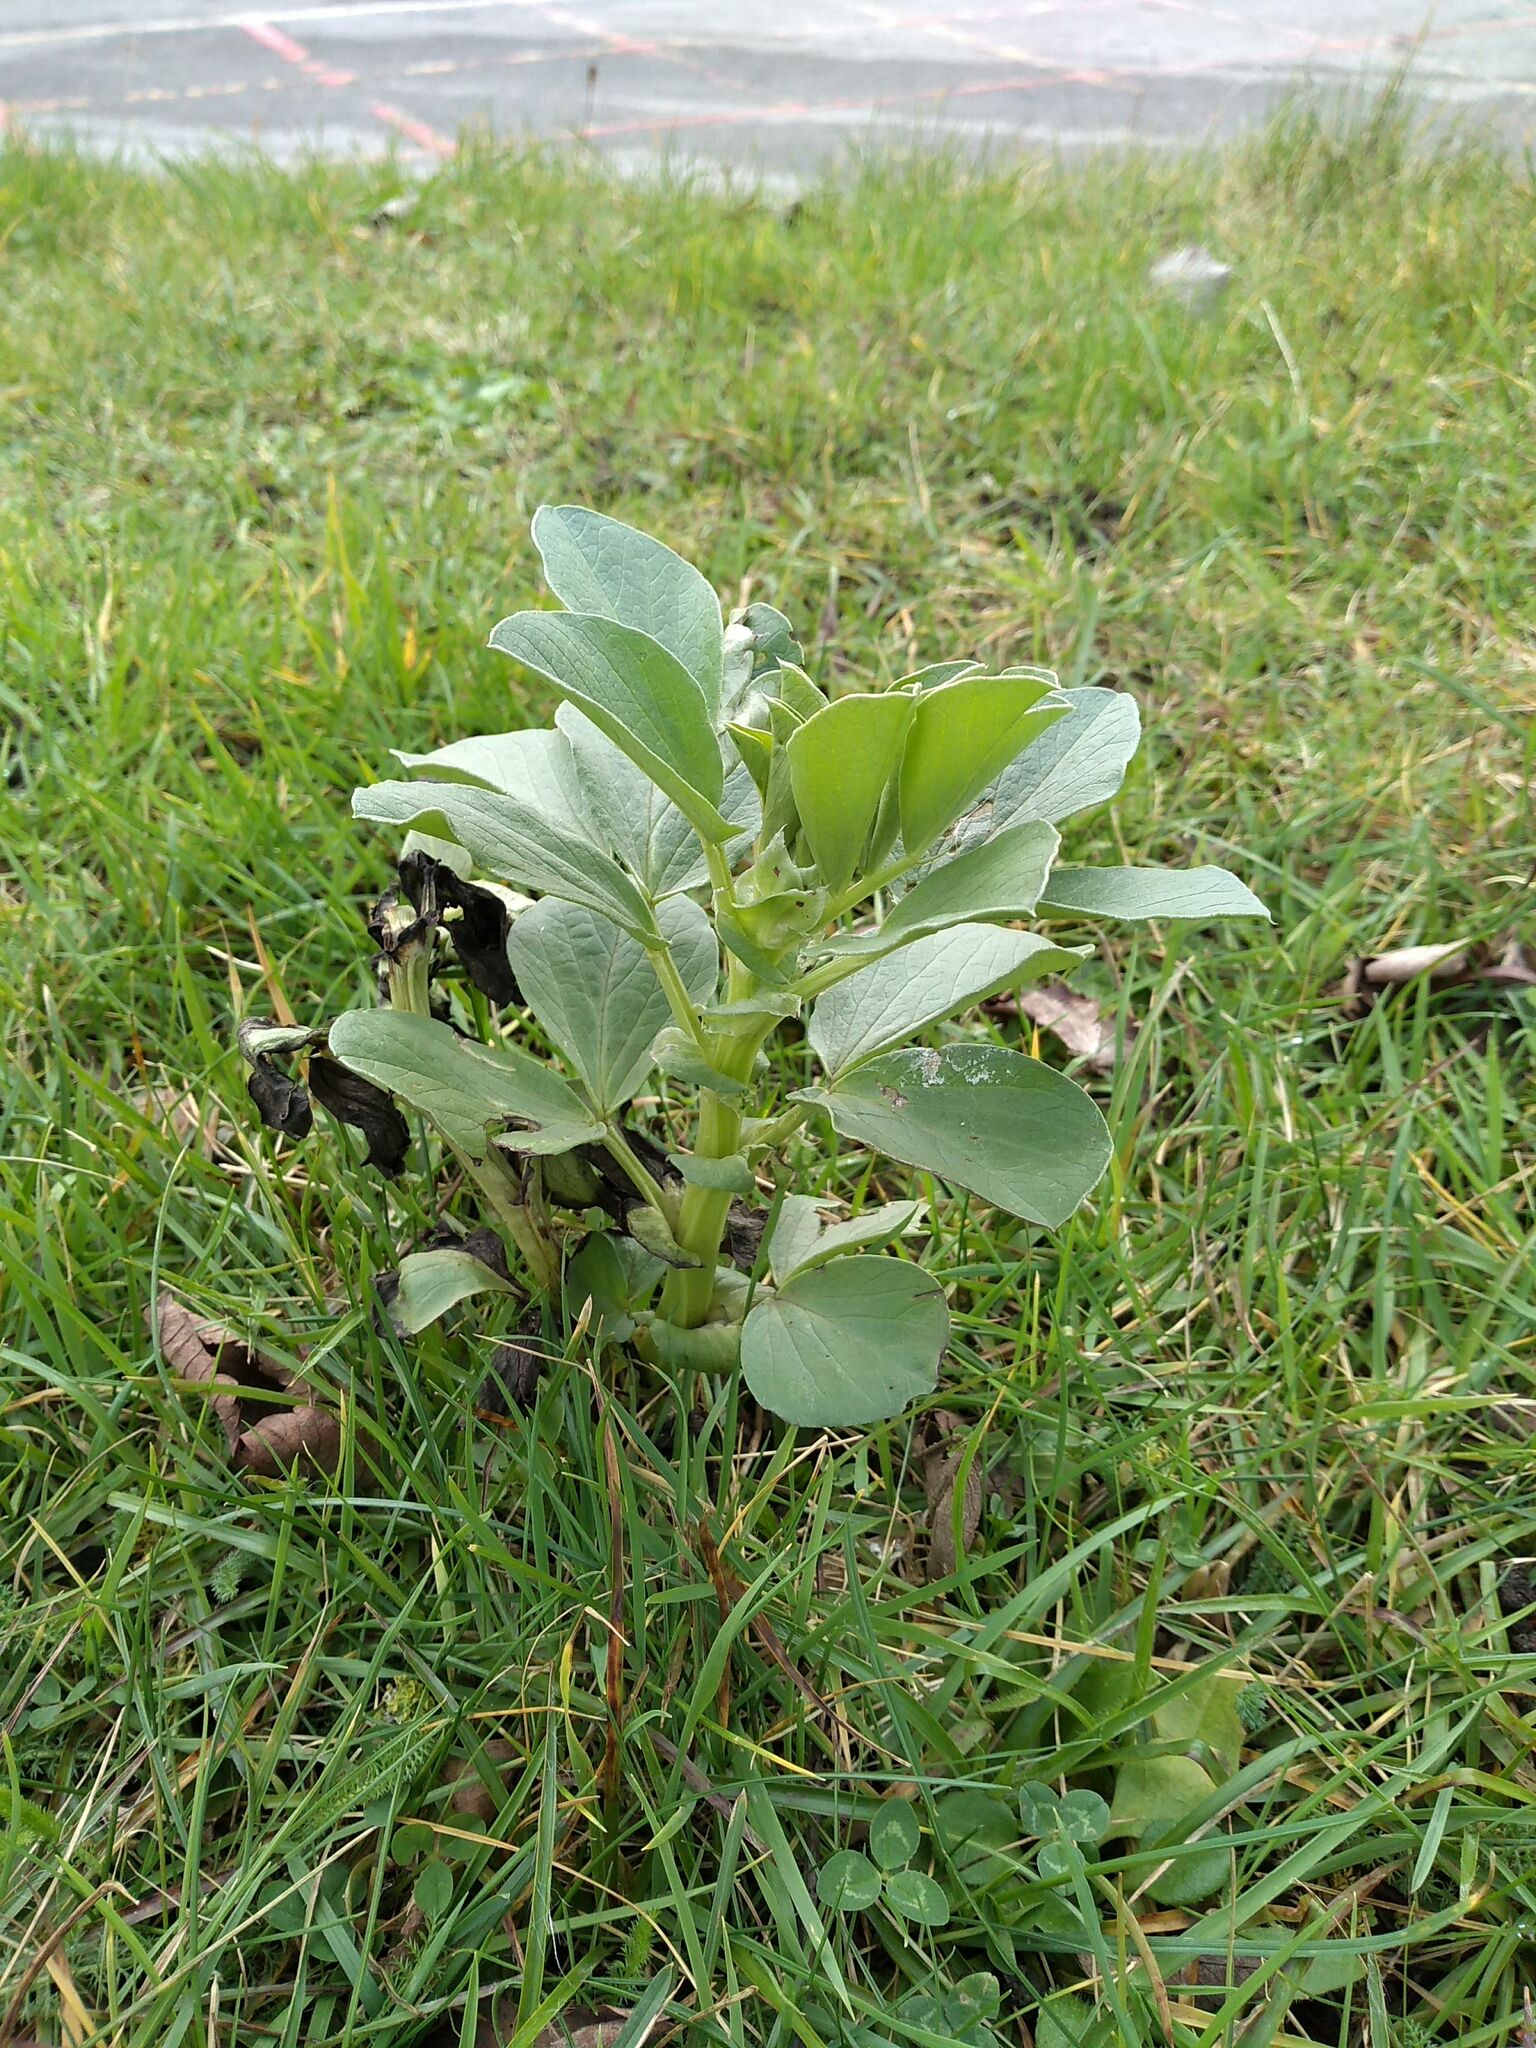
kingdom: Plantae
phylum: Tracheophyta
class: Magnoliopsida
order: Fabales
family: Fabaceae
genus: Vicia
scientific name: Vicia faba
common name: Broad bean
